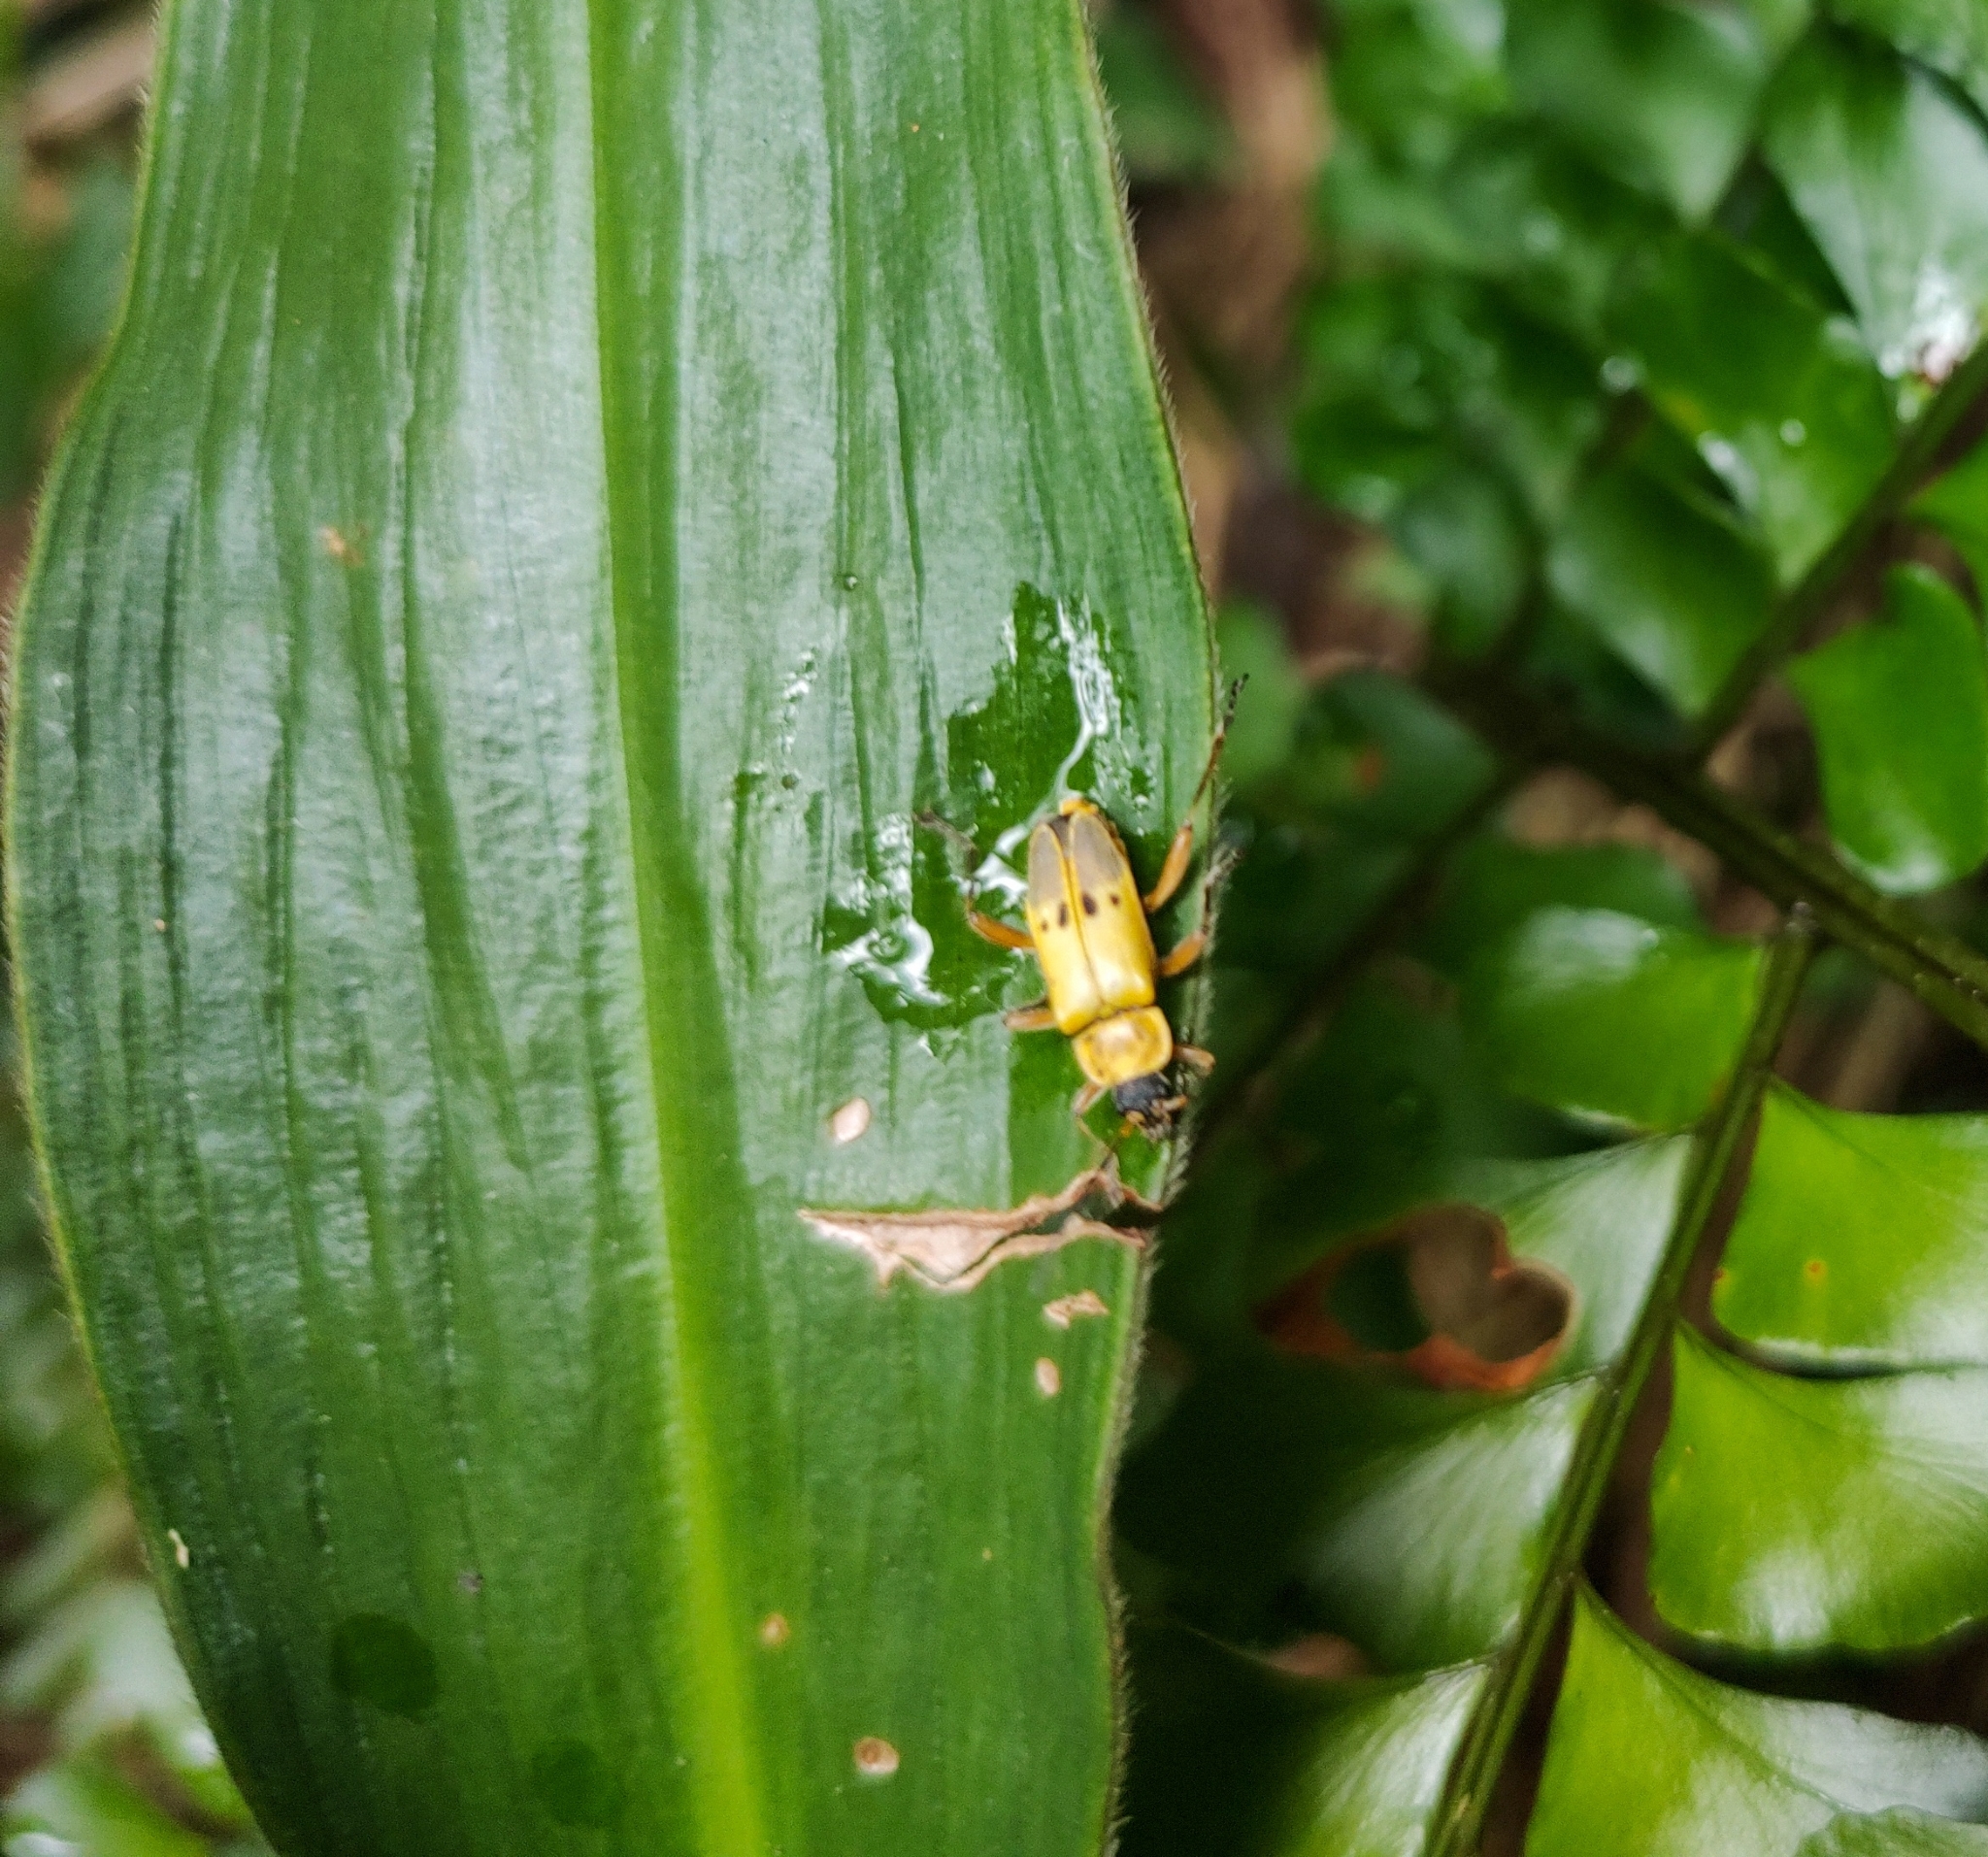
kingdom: Animalia
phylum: Arthropoda
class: Insecta
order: Coleoptera
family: Cantharidae
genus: Chauliognathus
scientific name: Chauliognathus
